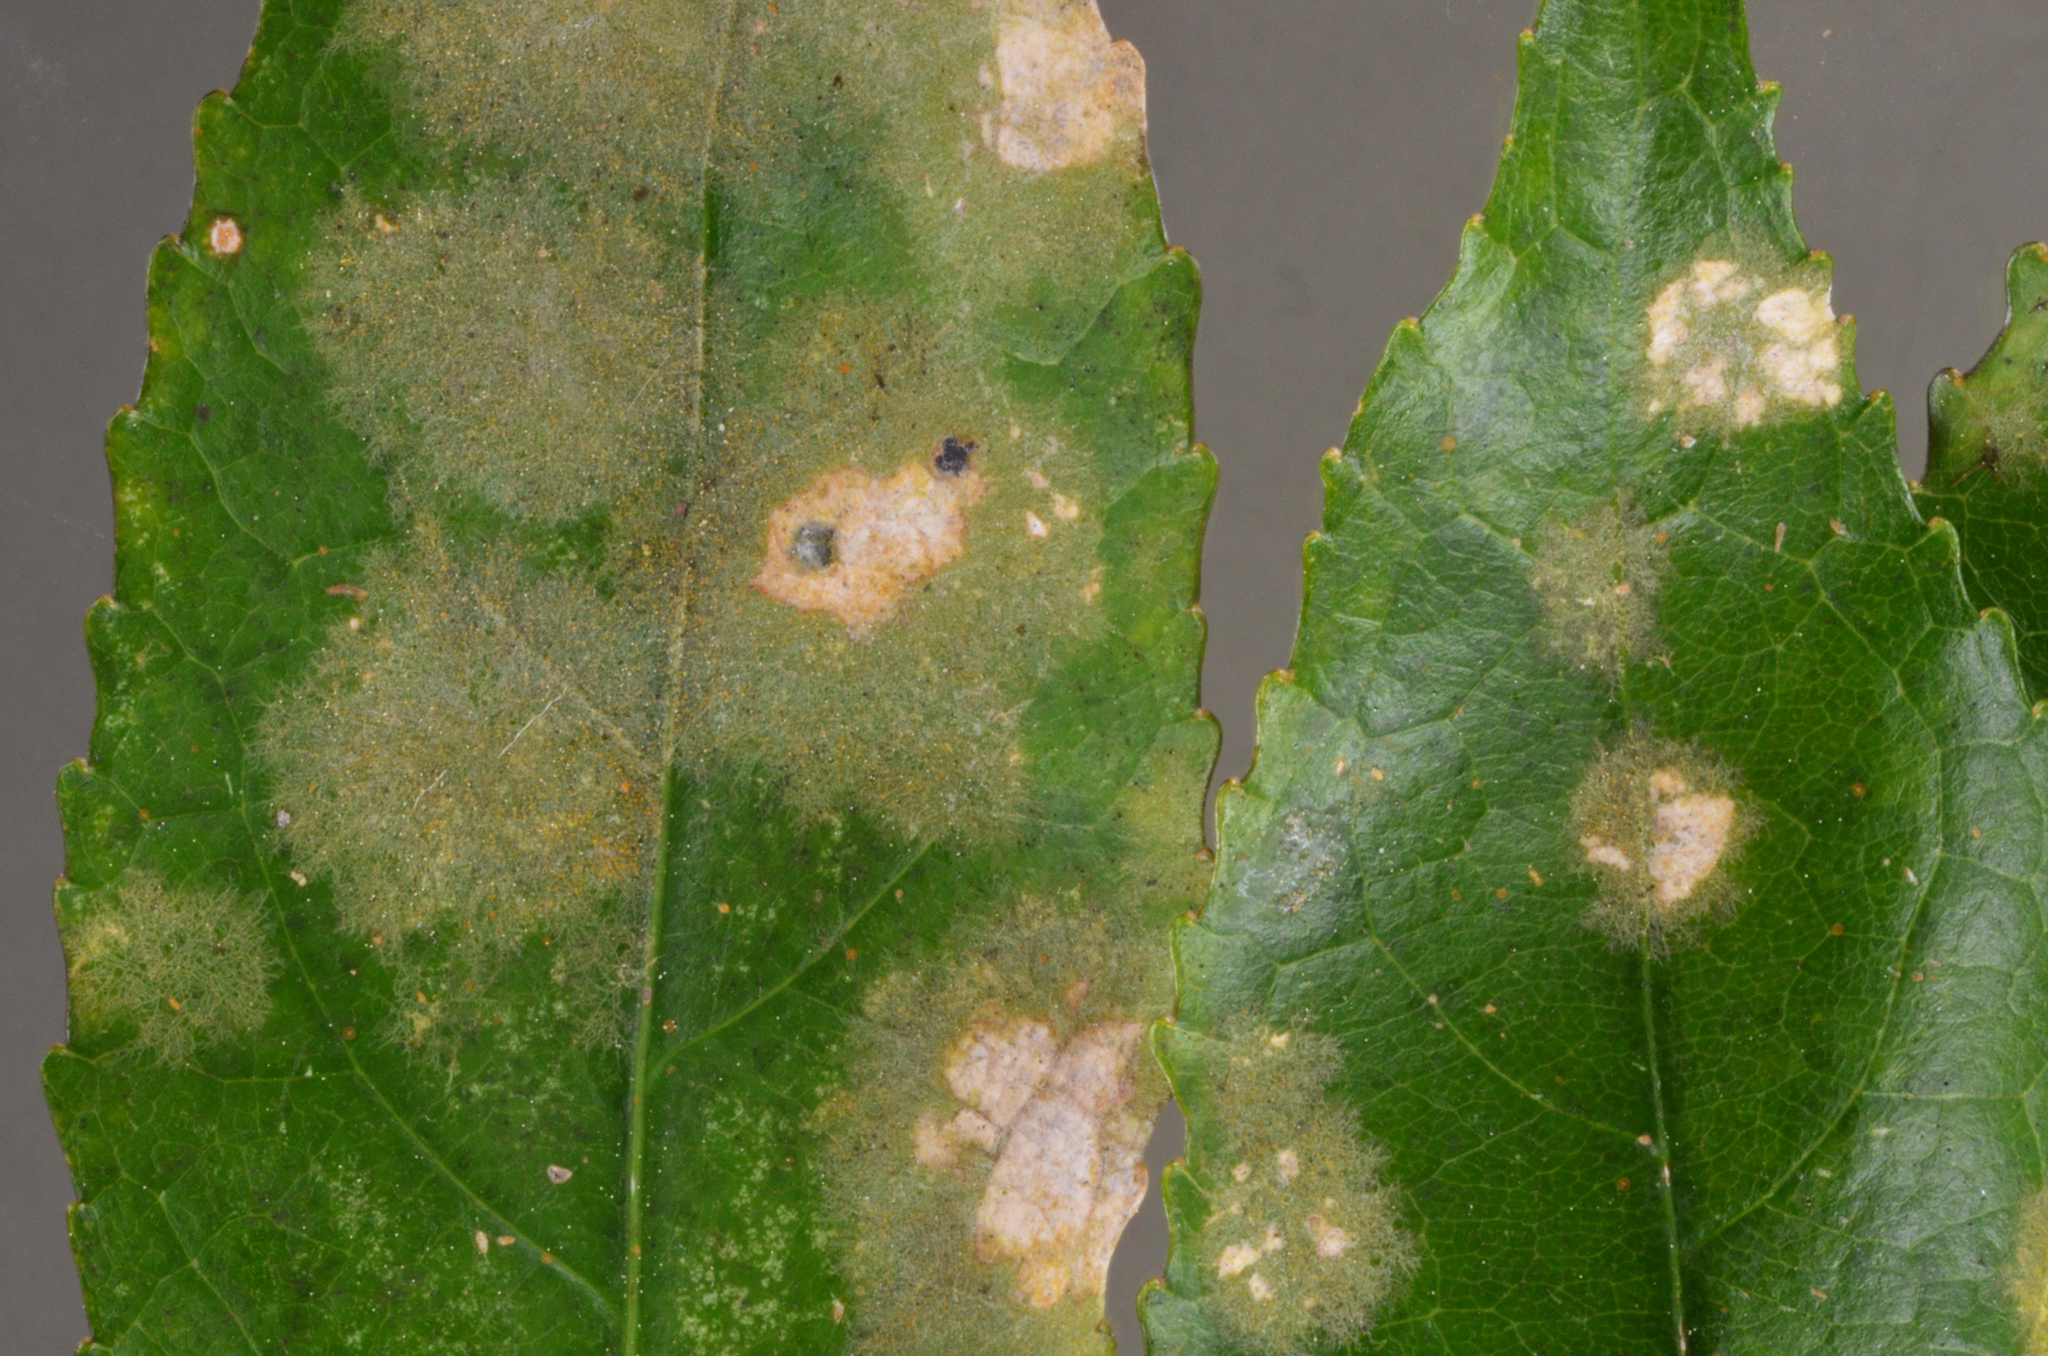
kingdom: Plantae
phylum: Chlorophyta
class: Ulvophyceae
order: Trentepohliales
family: Trentepohliaceae
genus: Cephaleuros
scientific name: Cephaleuros
